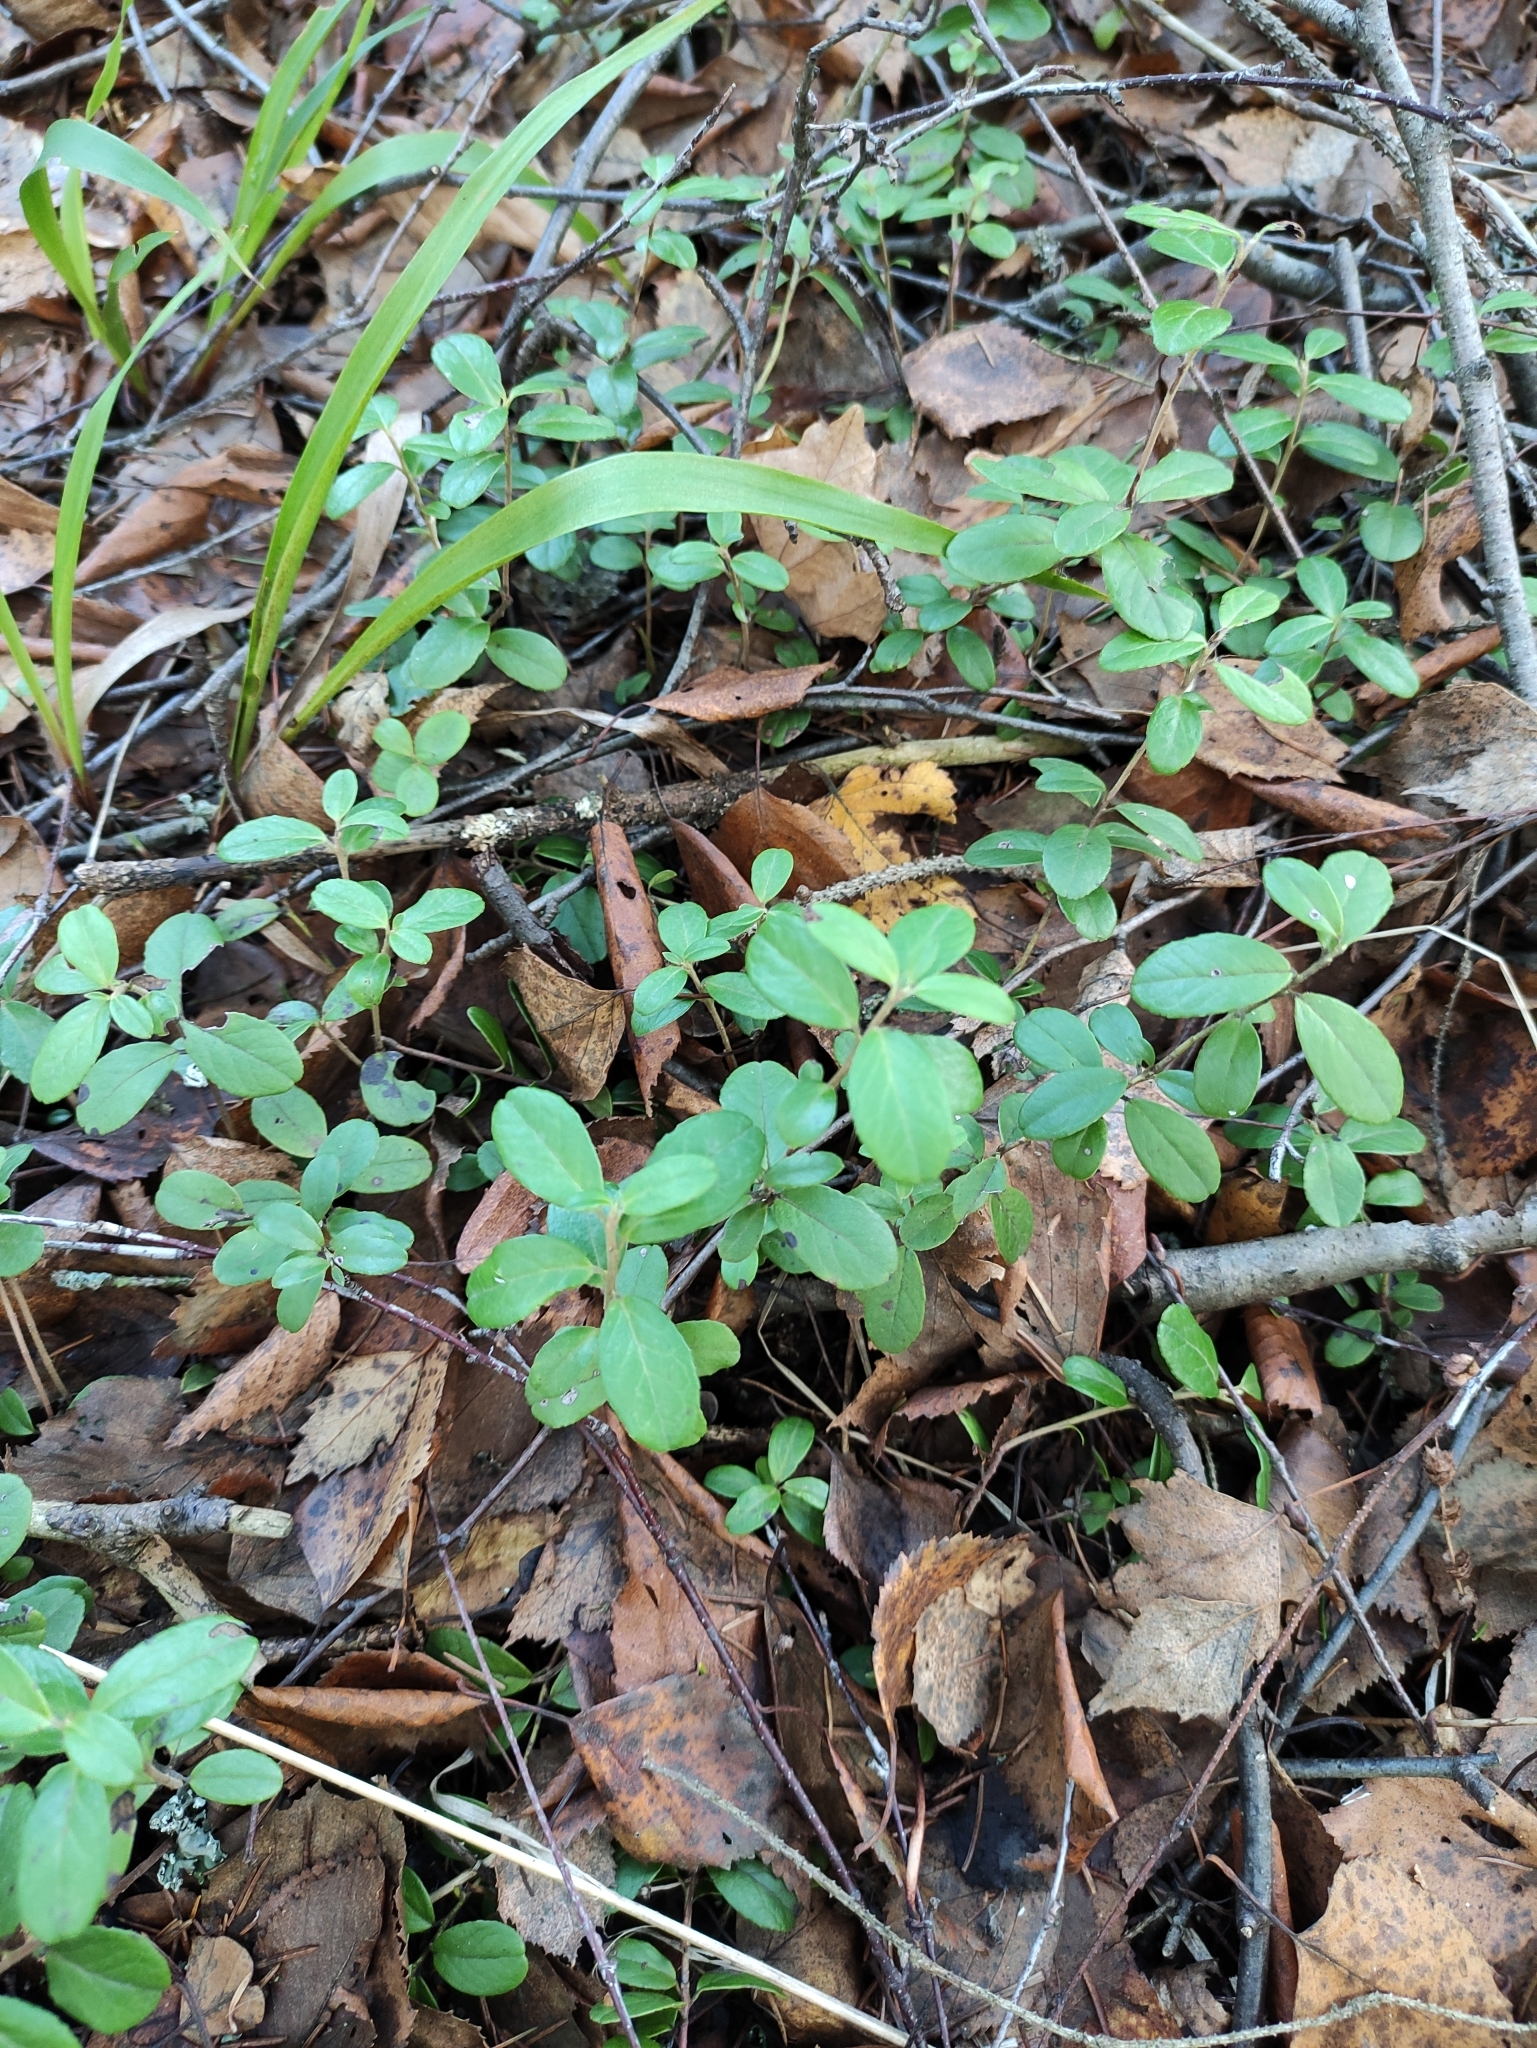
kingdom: Plantae
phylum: Tracheophyta
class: Magnoliopsida
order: Ericales
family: Ericaceae
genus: Vaccinium
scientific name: Vaccinium vitis-idaea
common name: Cowberry
